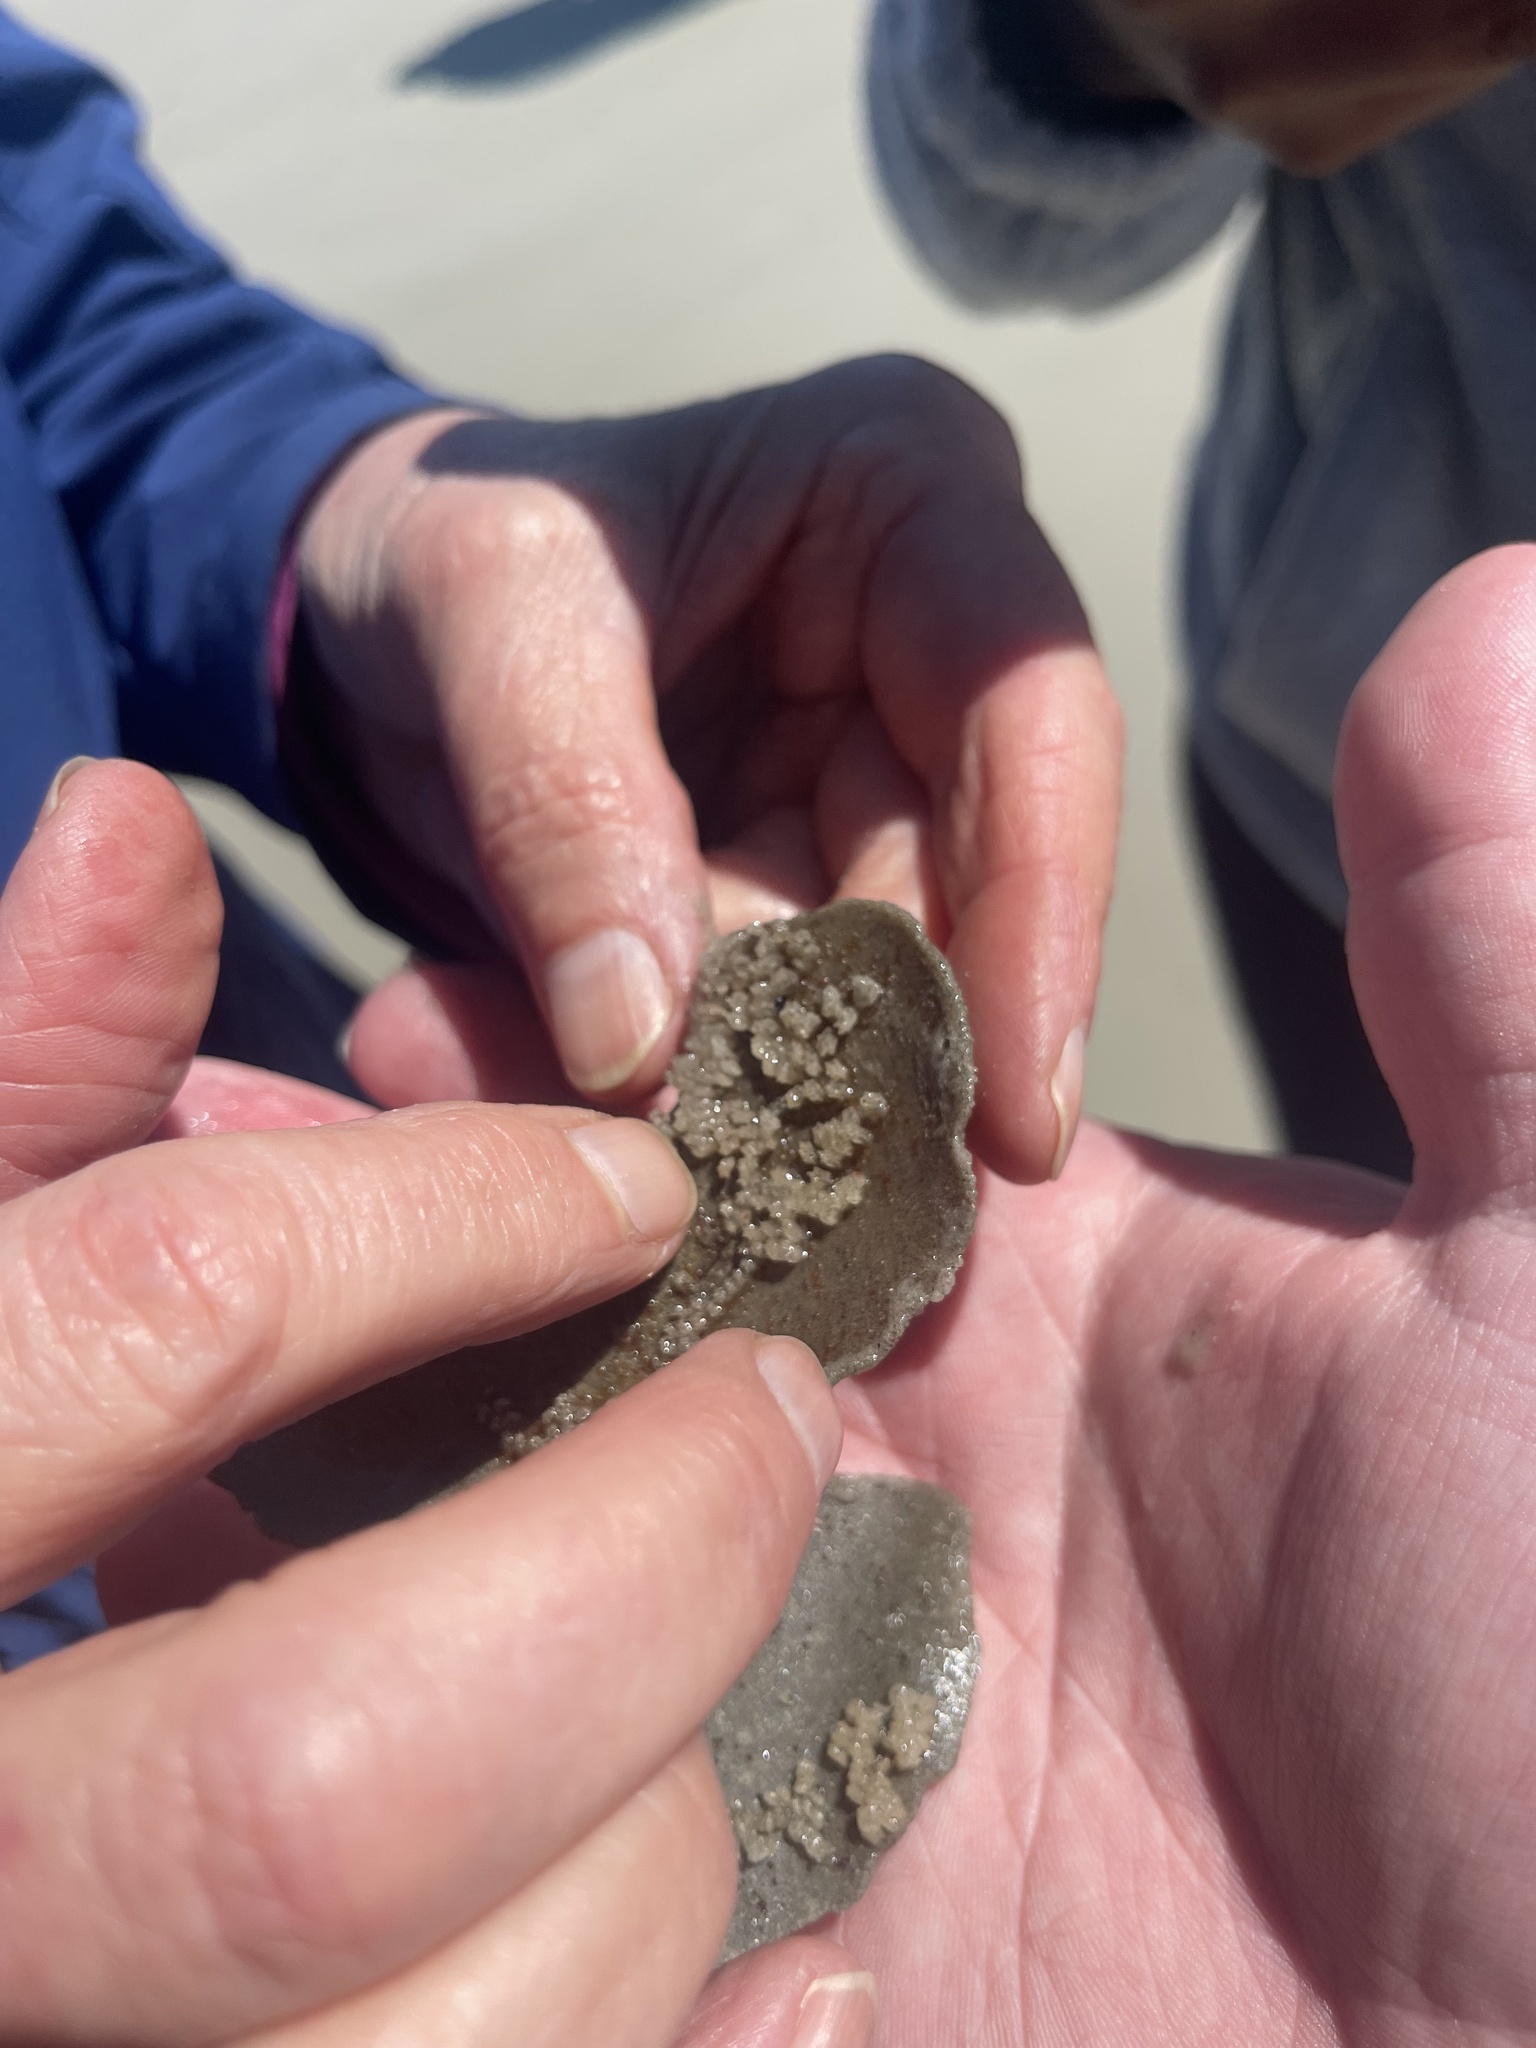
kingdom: Animalia
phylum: Mollusca
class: Gastropoda
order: Littorinimorpha
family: Naticidae
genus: Neverita
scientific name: Neverita duplicata
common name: Lobed moonsnail
